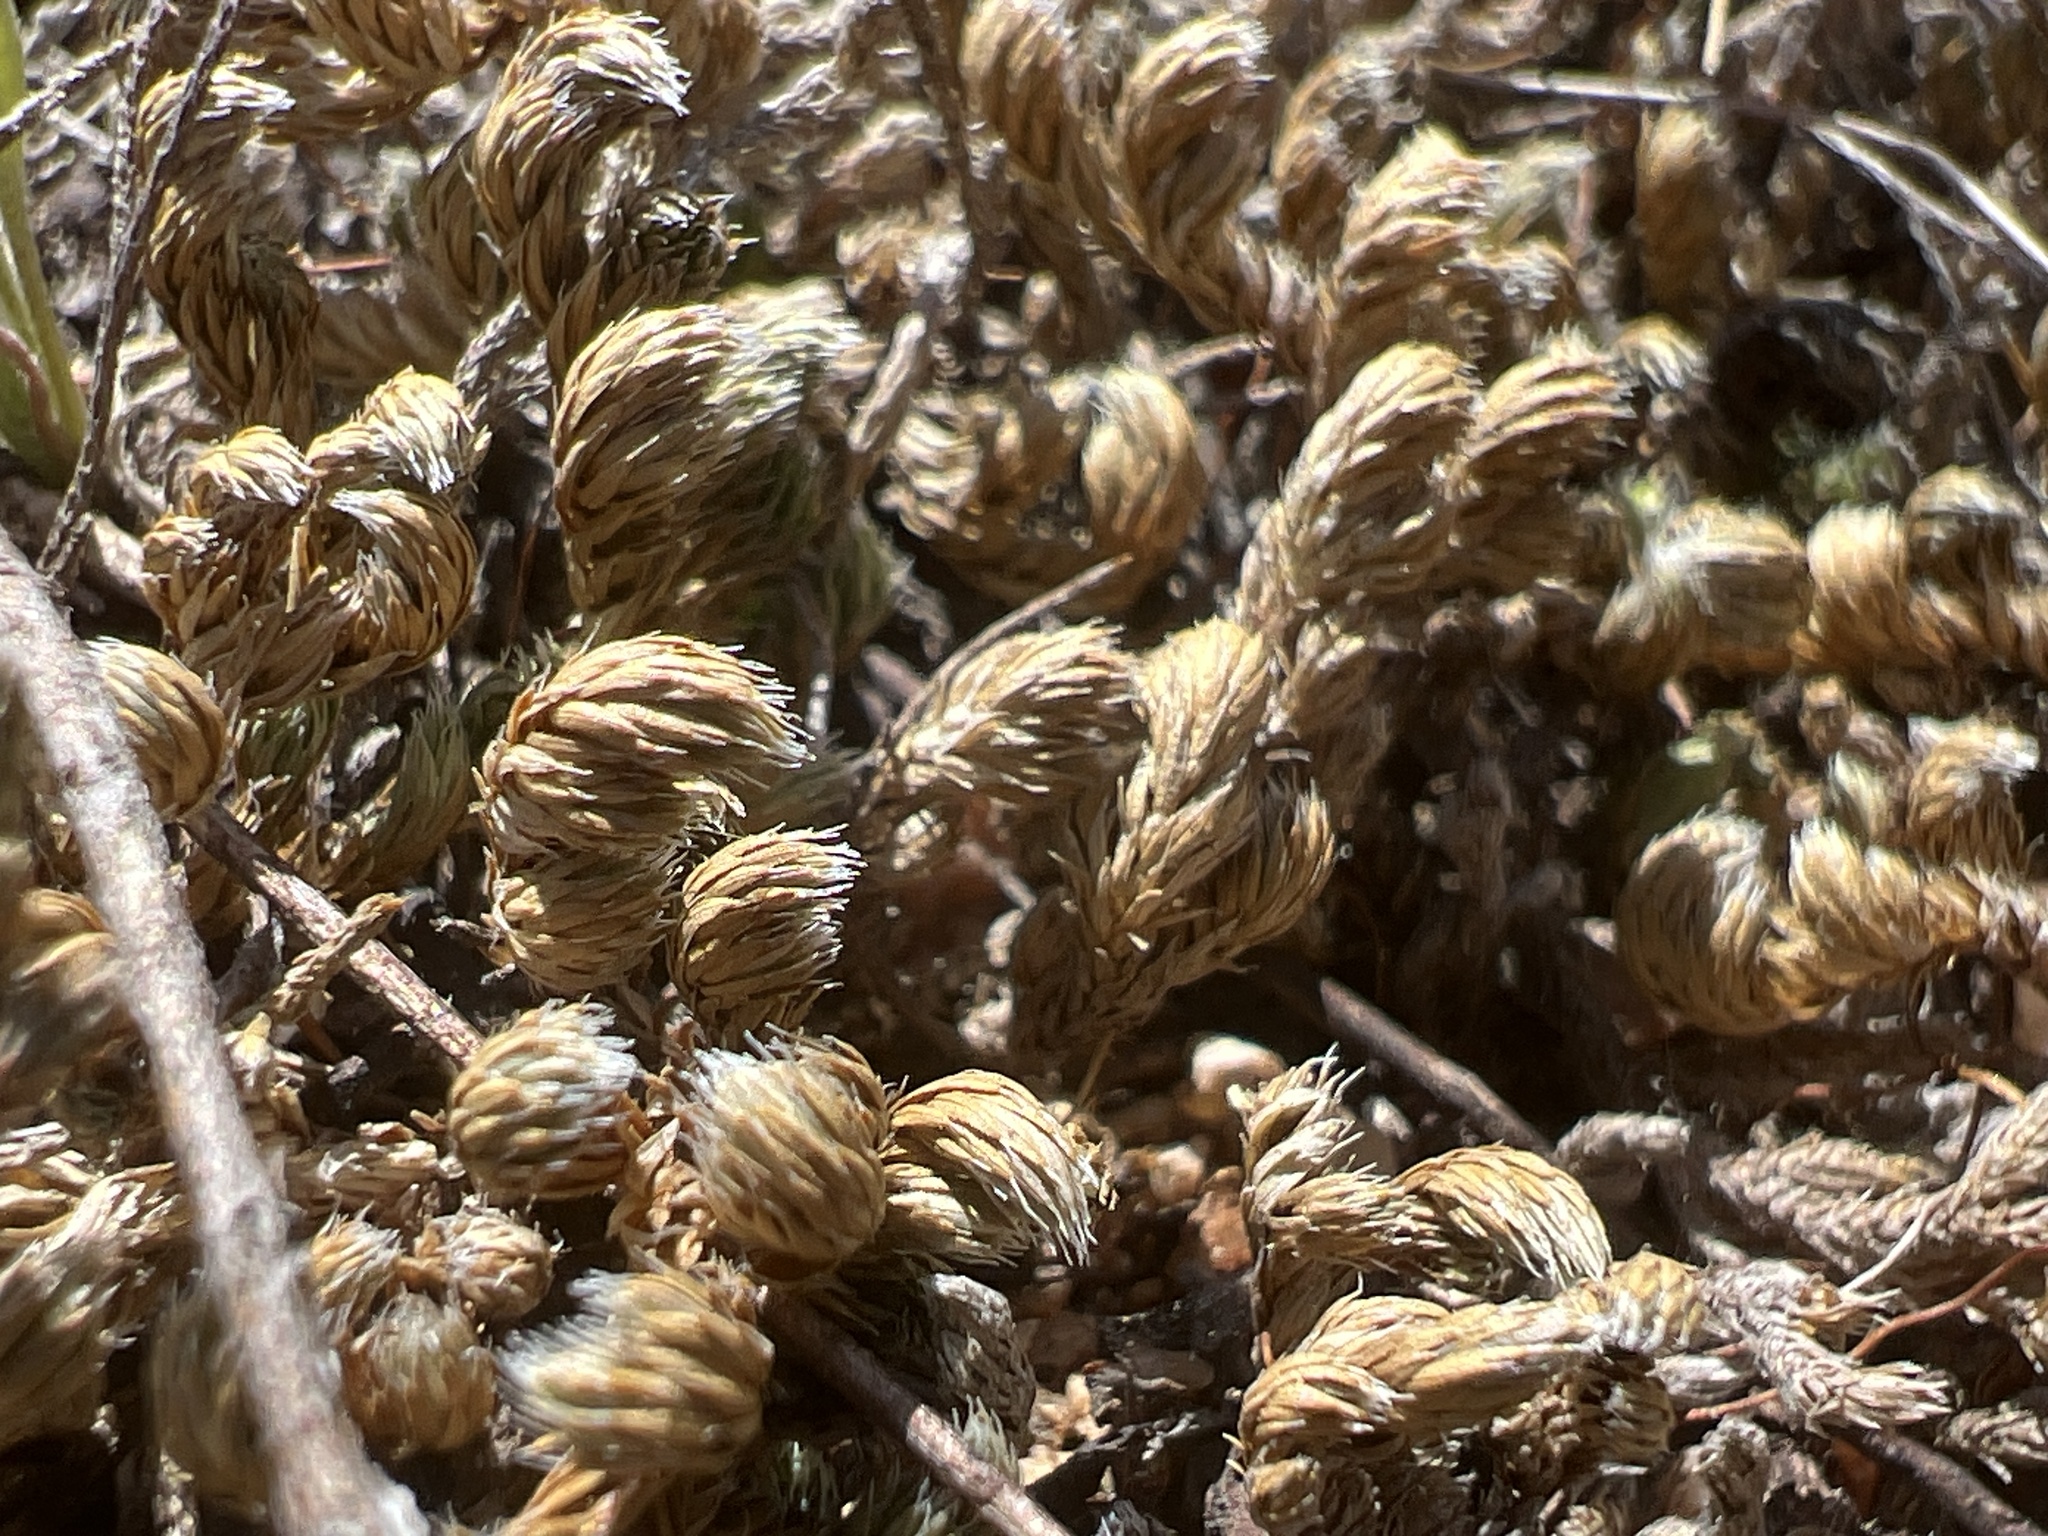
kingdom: Plantae
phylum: Tracheophyta
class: Lycopodiopsida
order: Selaginellales
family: Selaginellaceae
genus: Selaginella
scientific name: Selaginella peruviana
